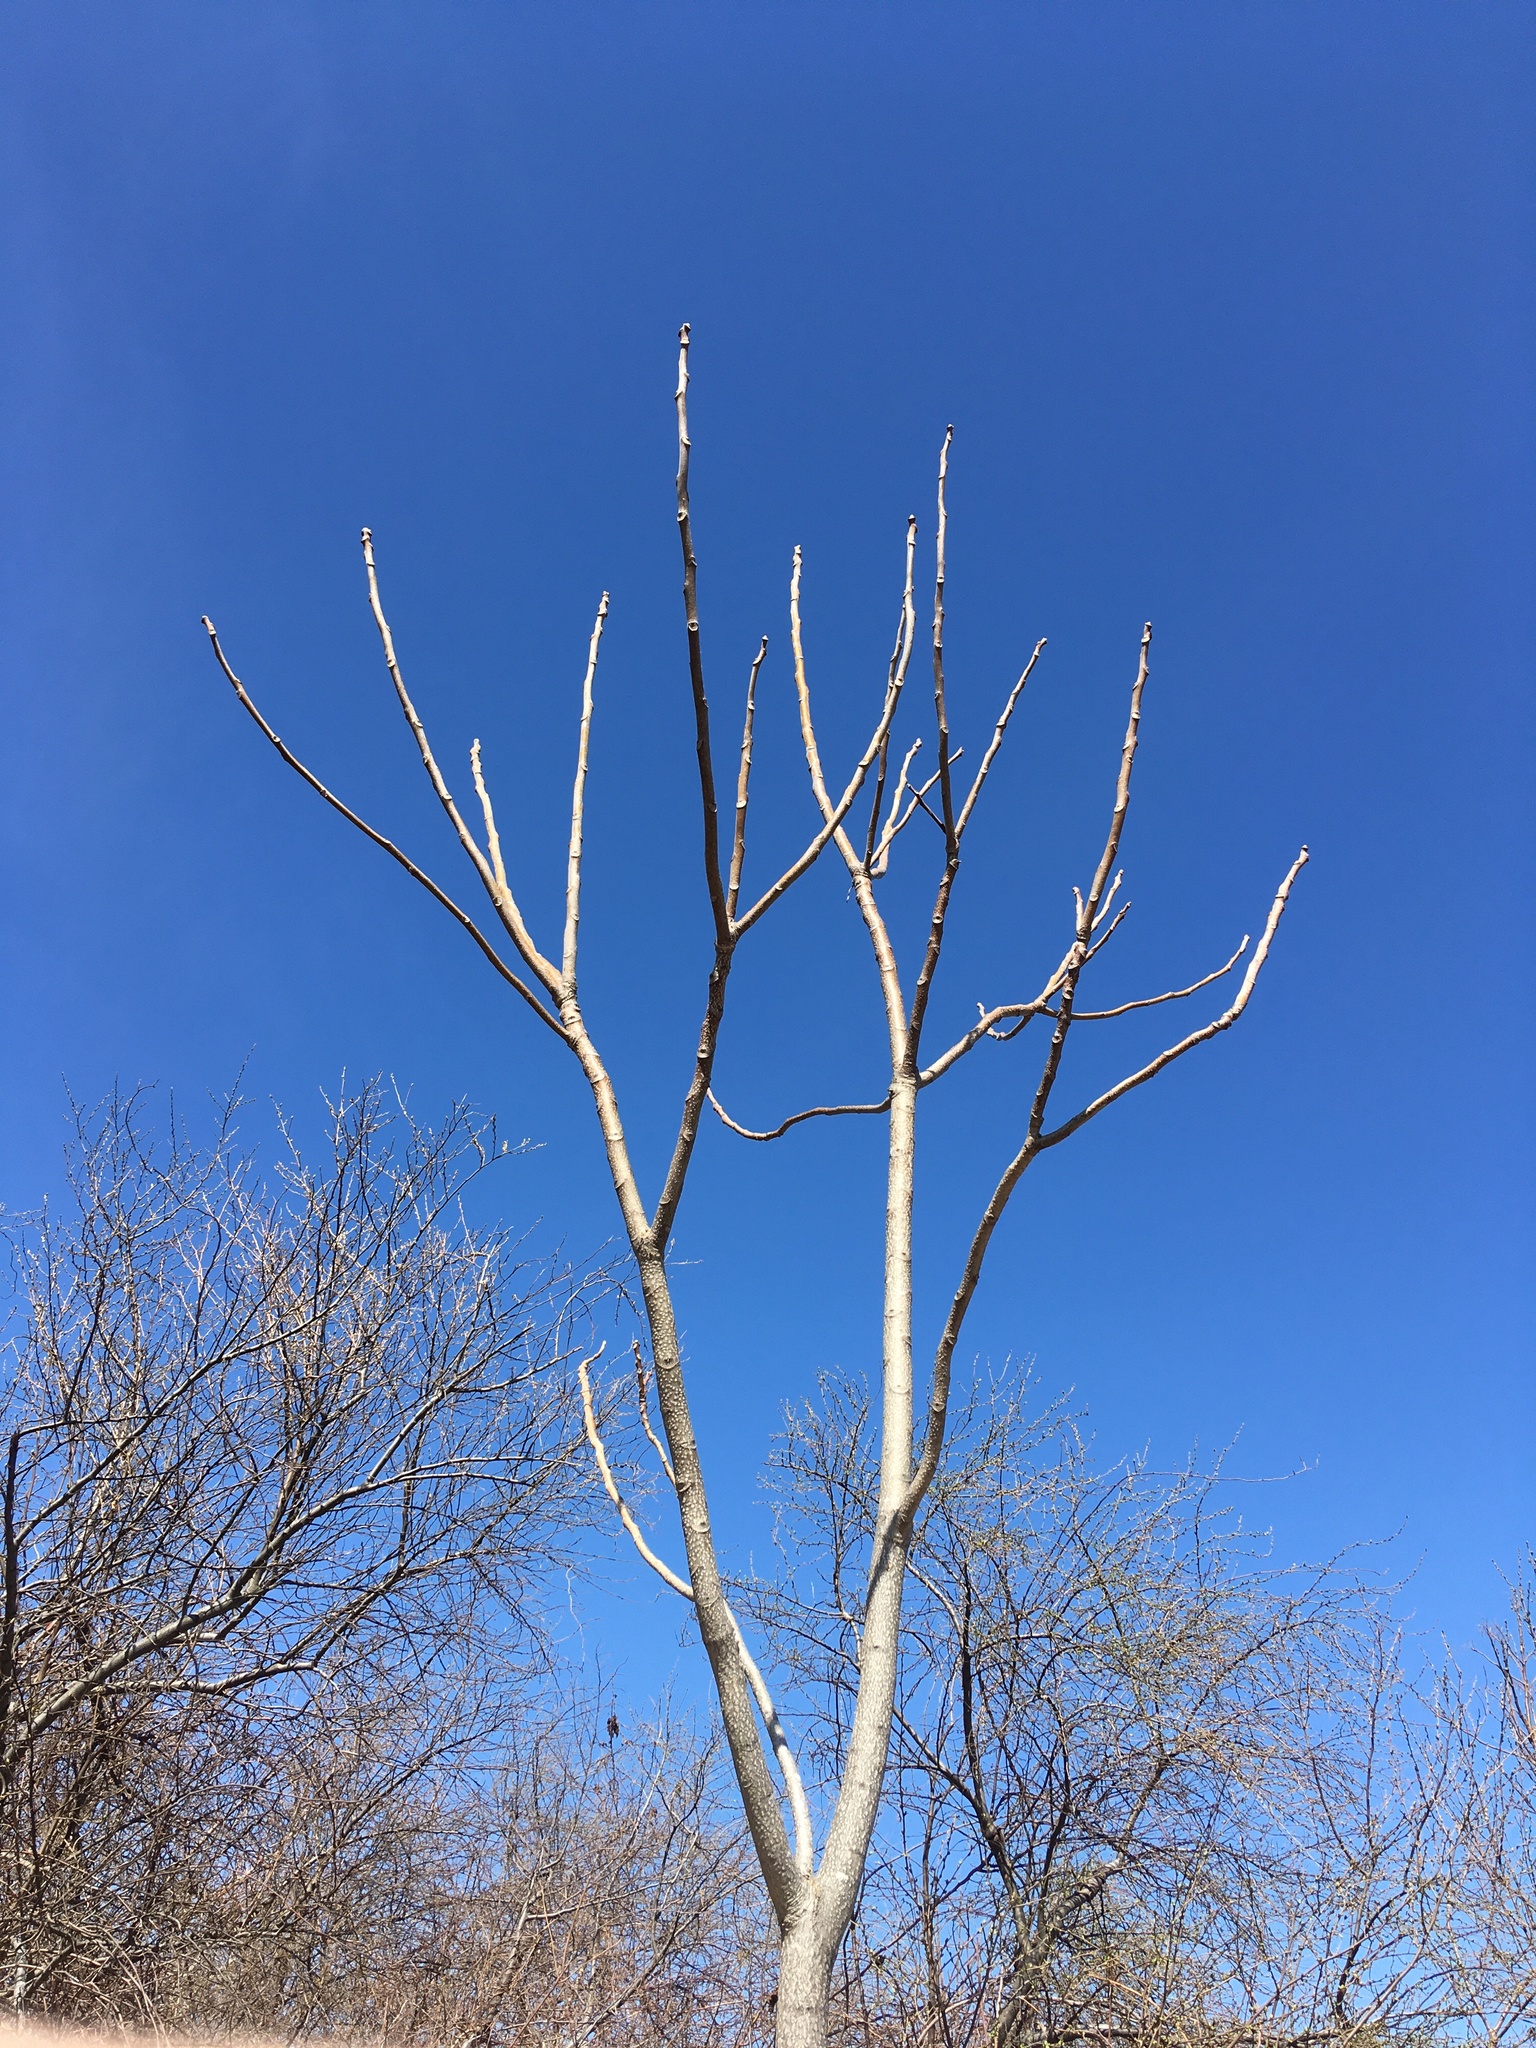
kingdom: Plantae
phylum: Tracheophyta
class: Magnoliopsida
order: Sapindales
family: Simaroubaceae
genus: Ailanthus
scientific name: Ailanthus altissima
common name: Tree-of-heaven
